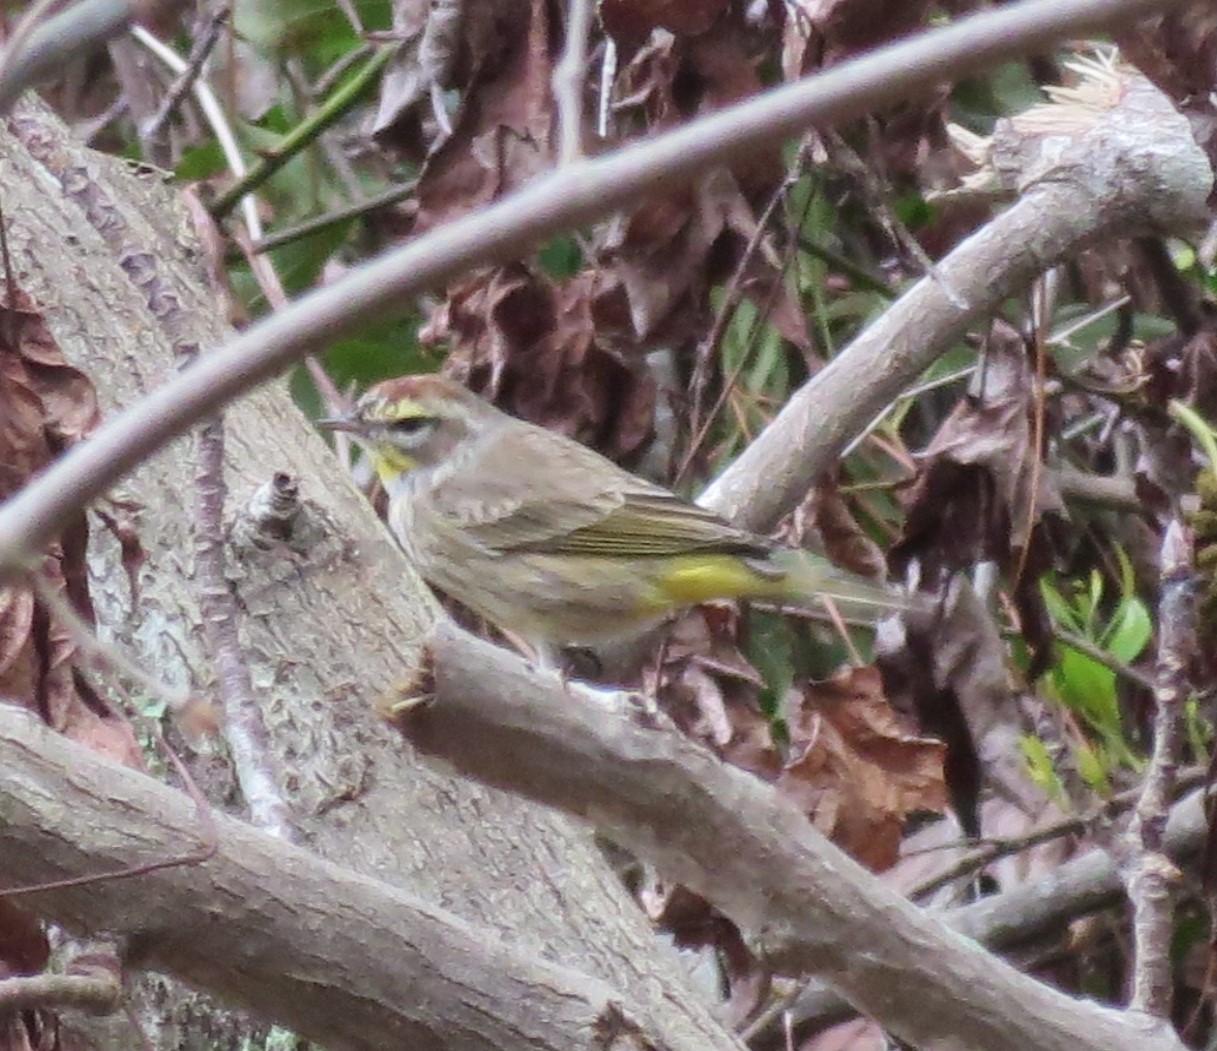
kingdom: Animalia
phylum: Chordata
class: Aves
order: Passeriformes
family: Parulidae
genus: Setophaga
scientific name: Setophaga palmarum
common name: Palm warbler
